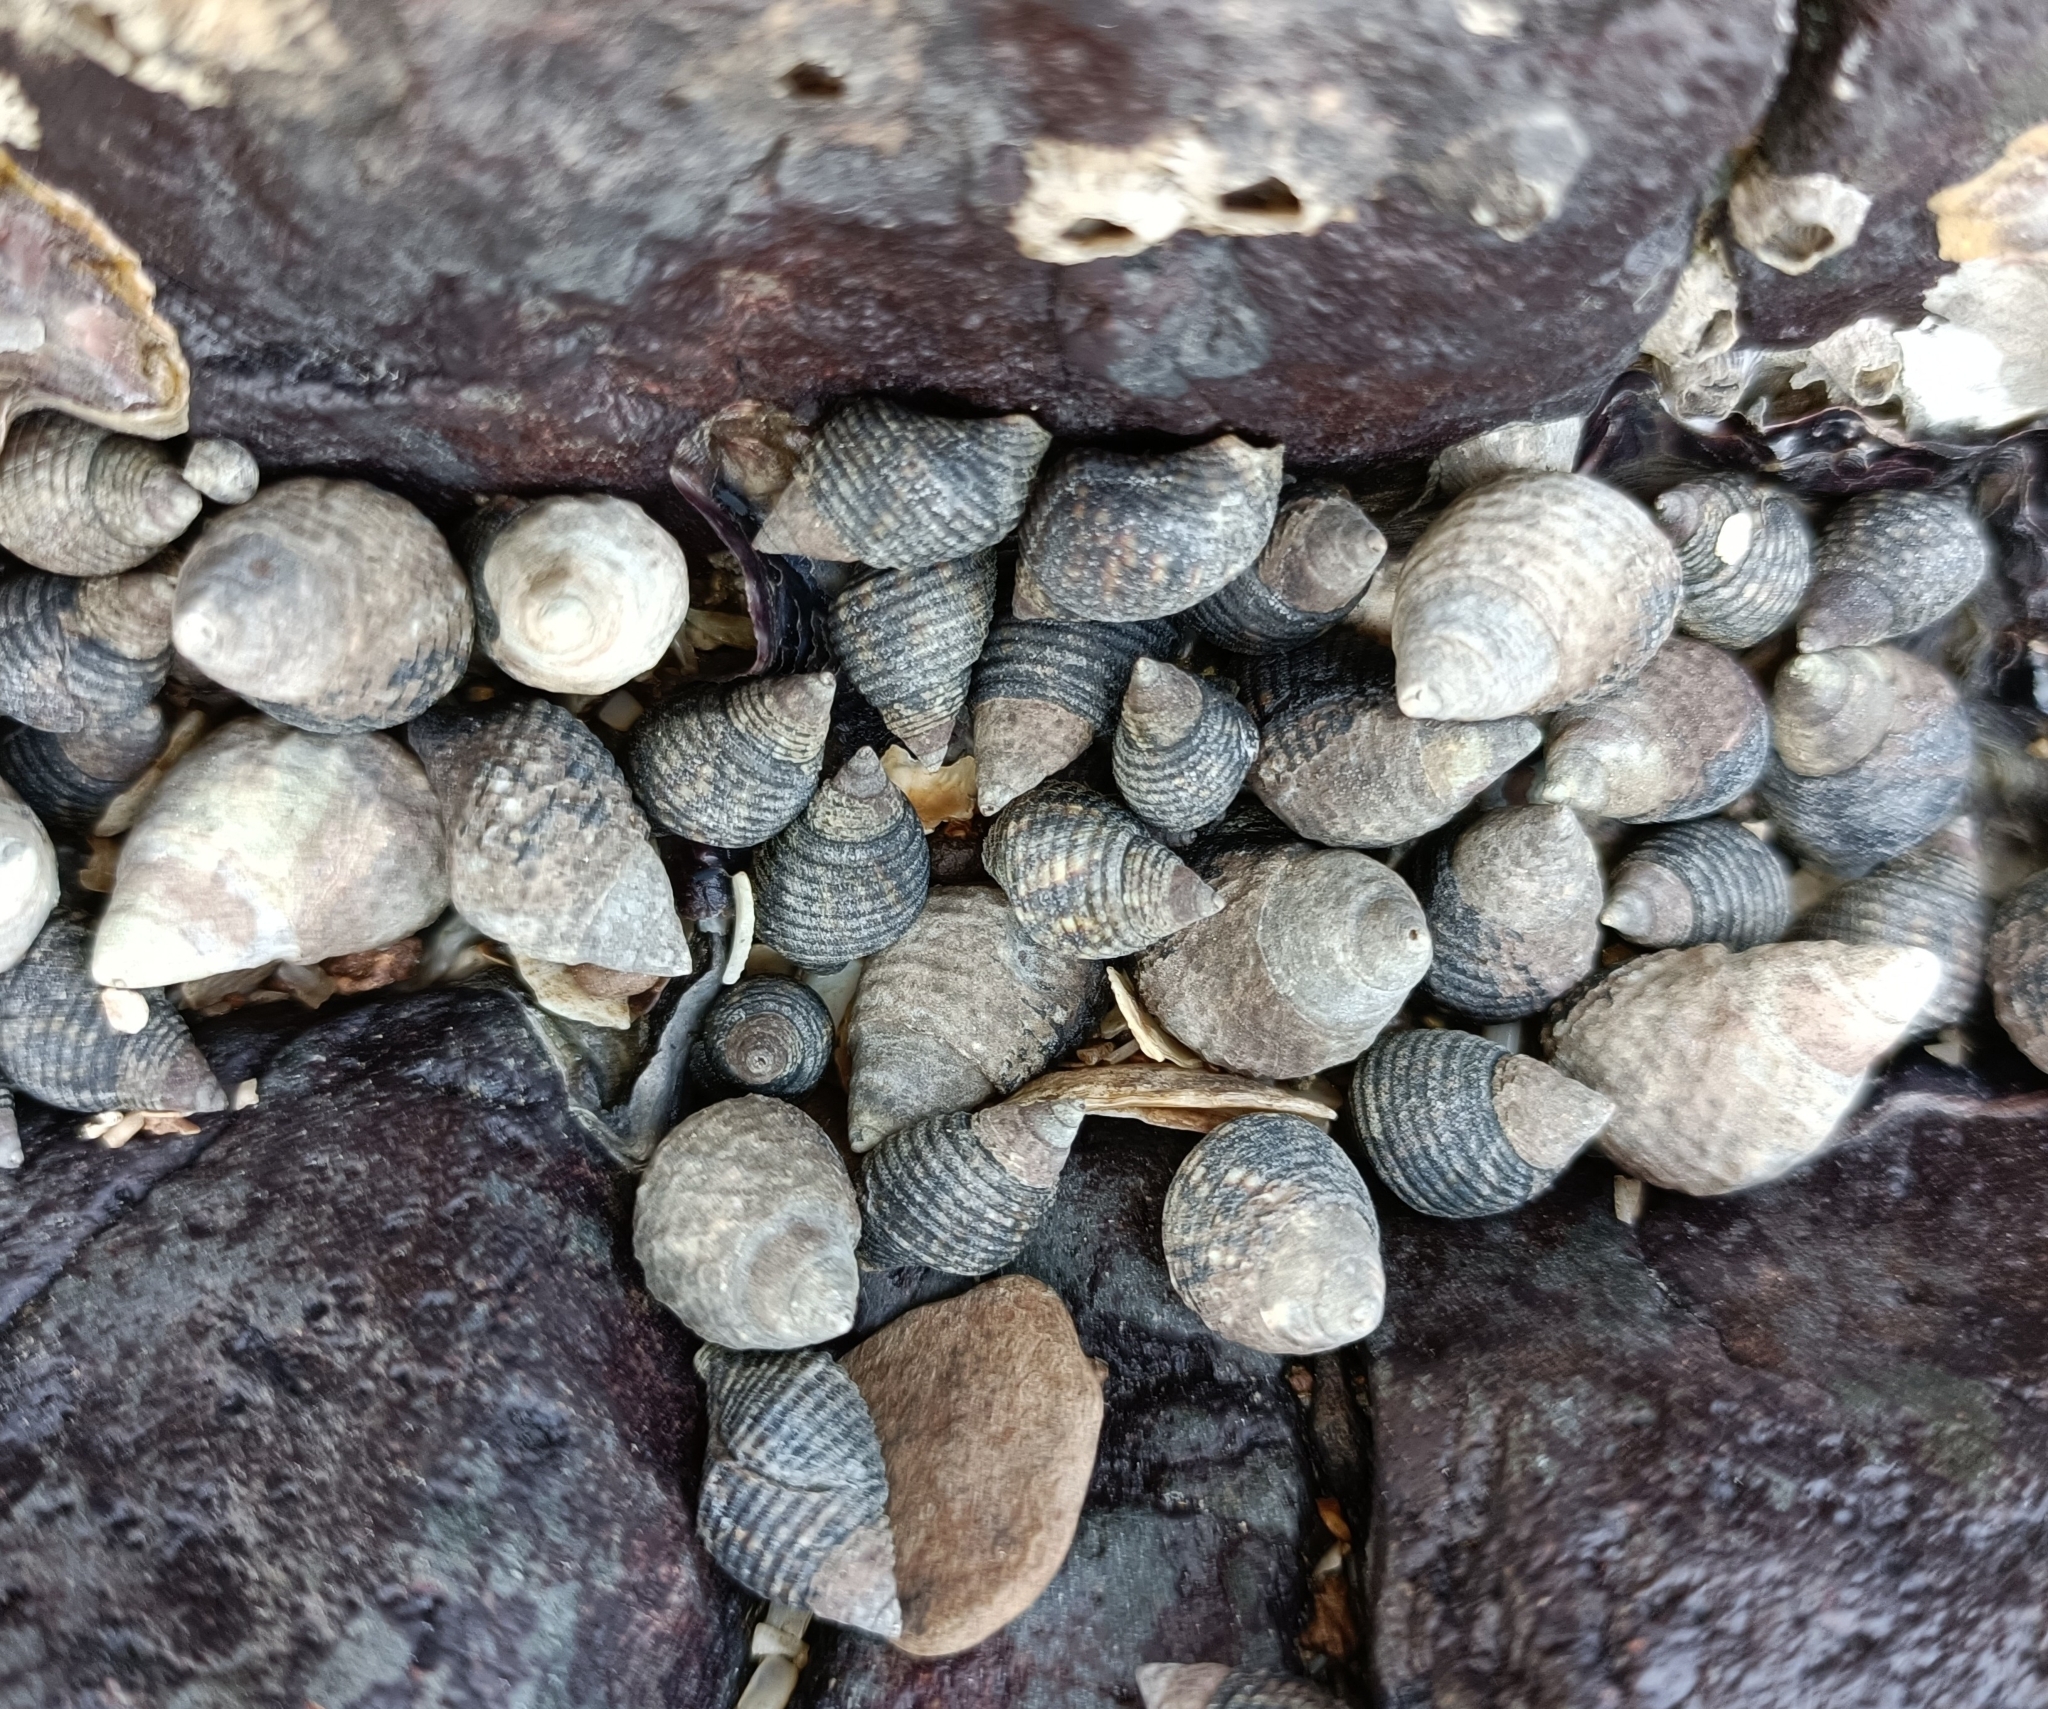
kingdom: Animalia
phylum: Mollusca
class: Gastropoda
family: Planaxidae
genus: Planaxis
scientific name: Planaxis sulcatus
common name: Furrowed planaxis
